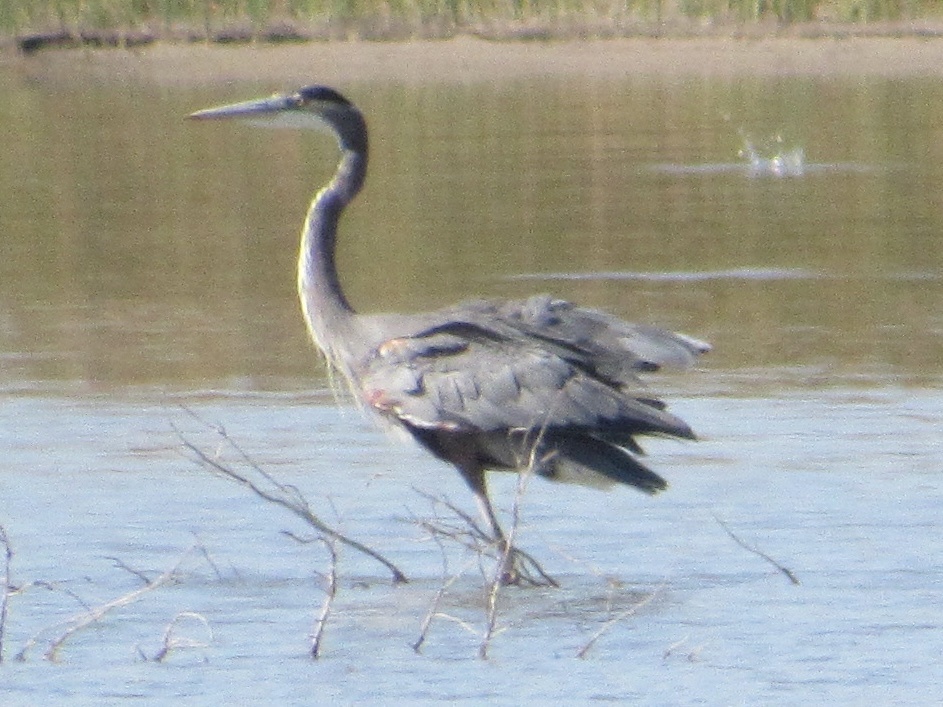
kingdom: Animalia
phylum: Chordata
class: Aves
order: Pelecaniformes
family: Ardeidae
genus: Ardea
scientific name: Ardea herodias
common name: Great blue heron
